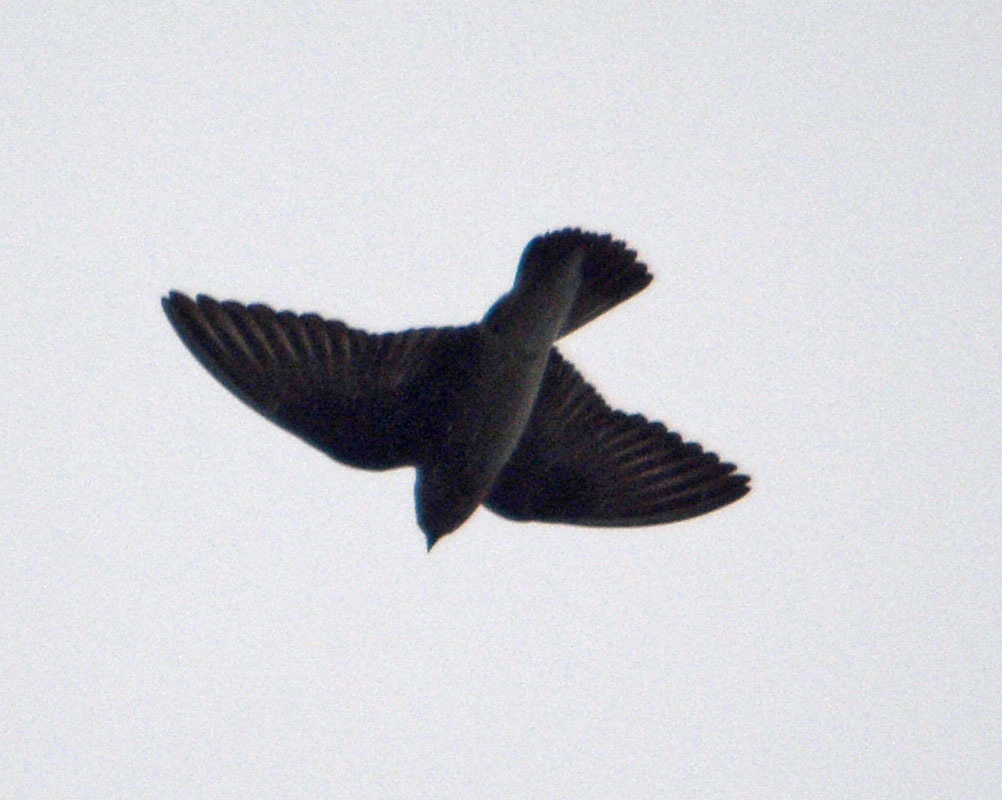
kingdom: Animalia
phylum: Chordata
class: Aves
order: Passeriformes
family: Hirundinidae
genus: Stelgidopteryx
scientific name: Stelgidopteryx serripennis
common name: Northern rough-winged swallow
